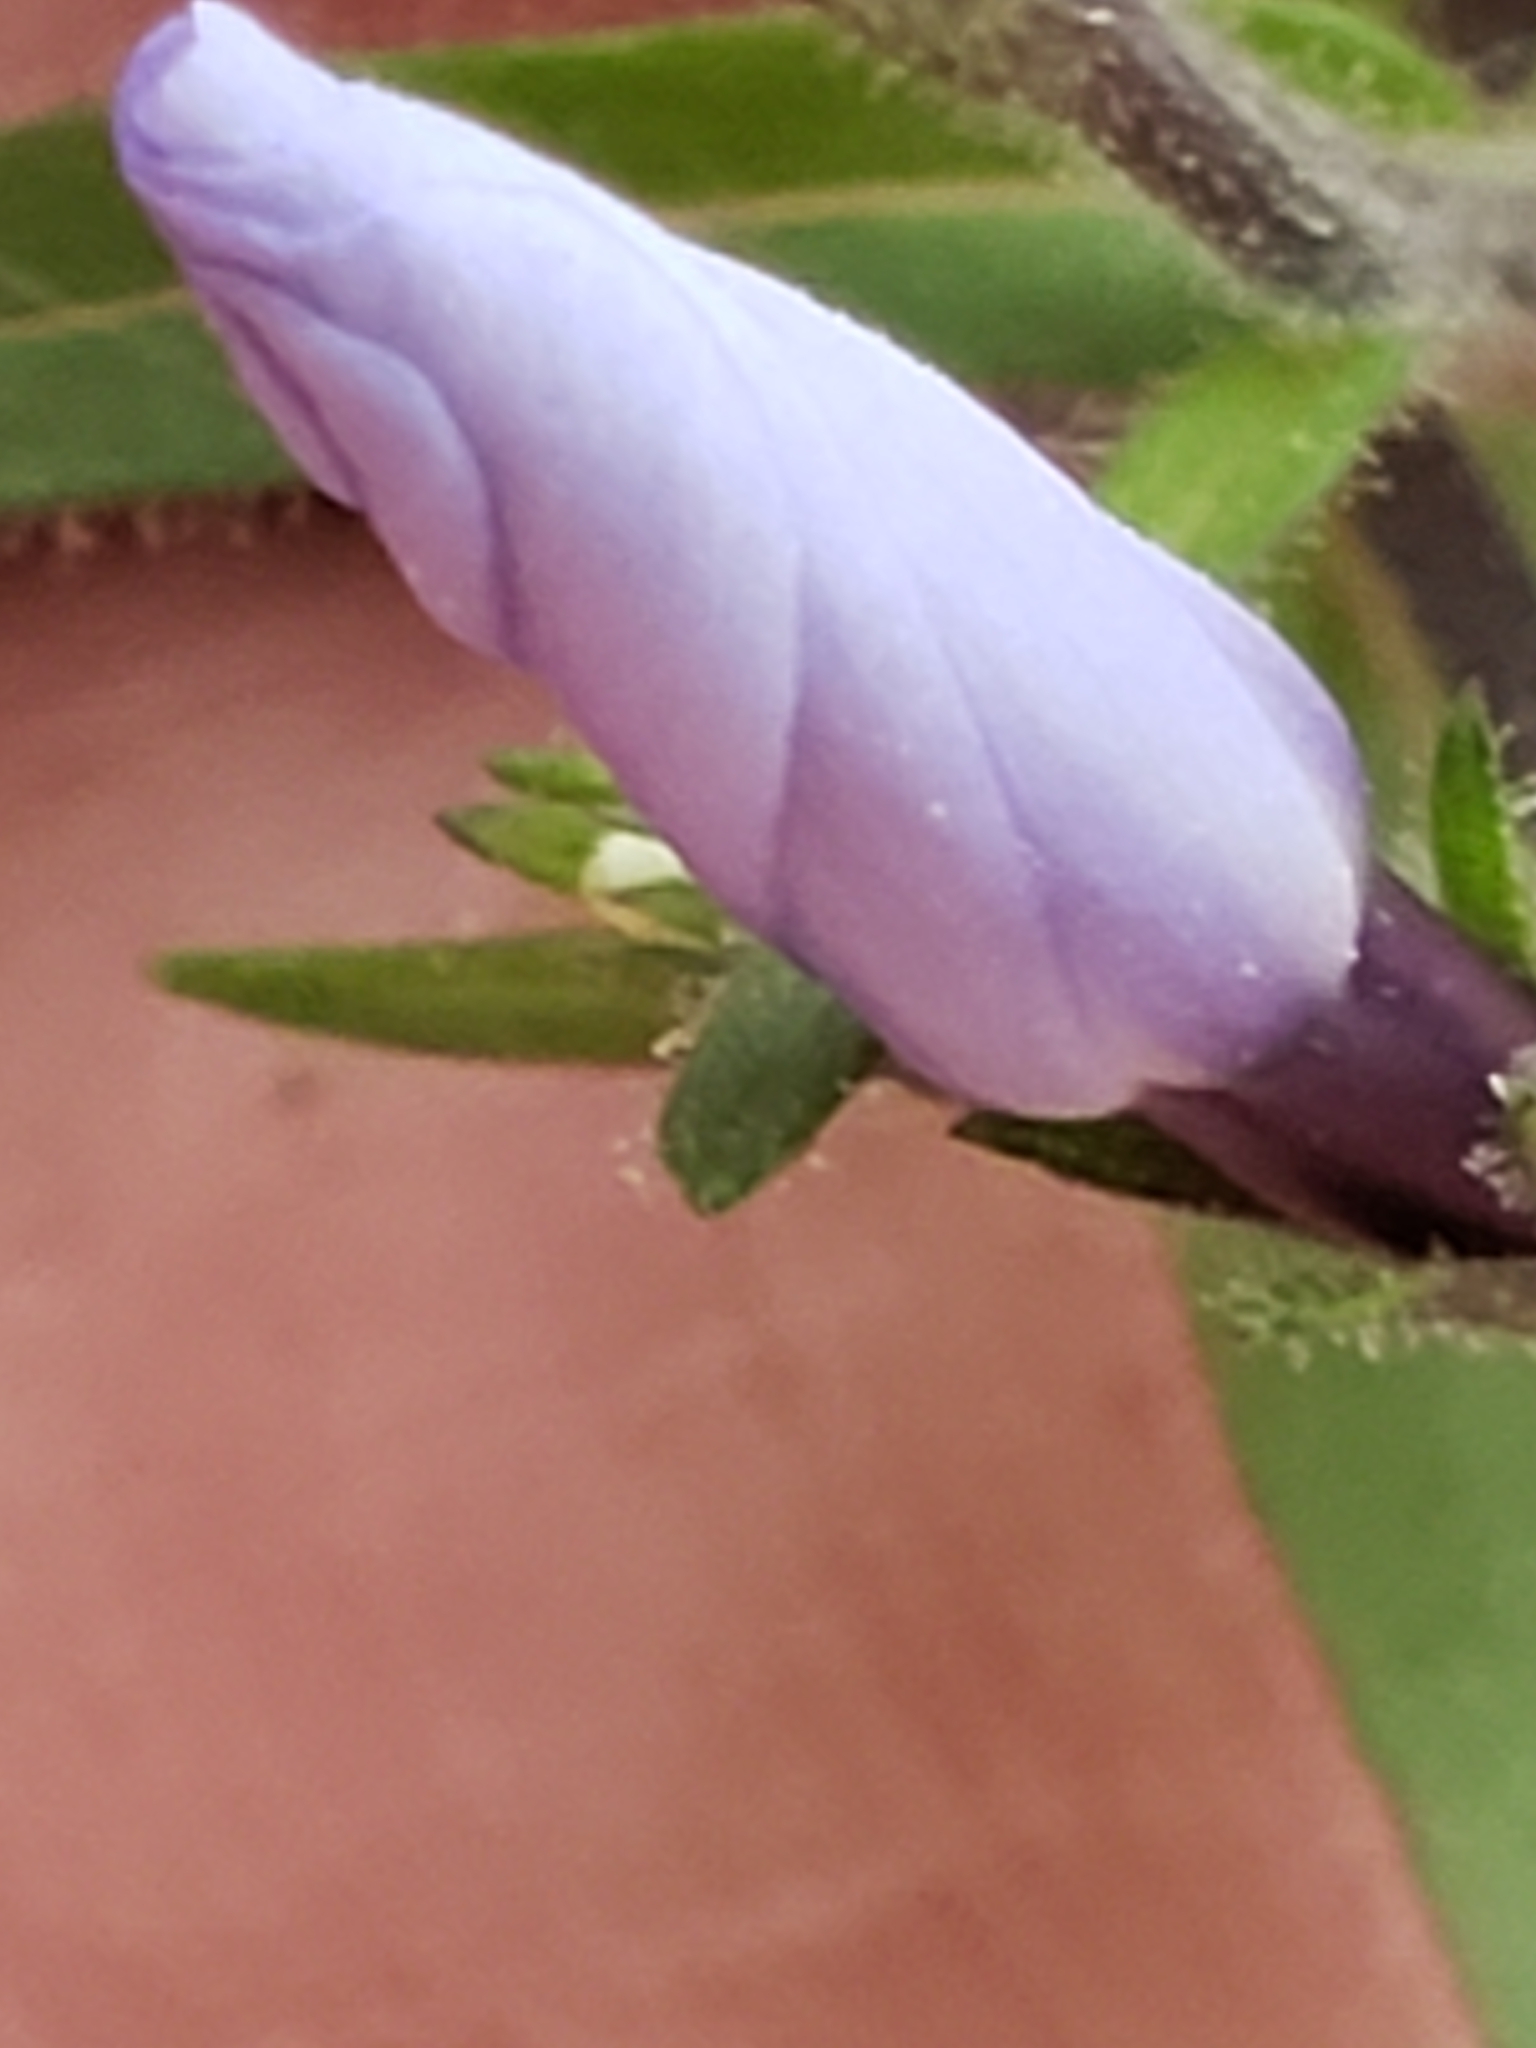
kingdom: Plantae
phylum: Tracheophyta
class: Magnoliopsida
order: Ericales
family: Polemoniaceae
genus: Phlox
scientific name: Phlox divaricata
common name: Blue phlox
